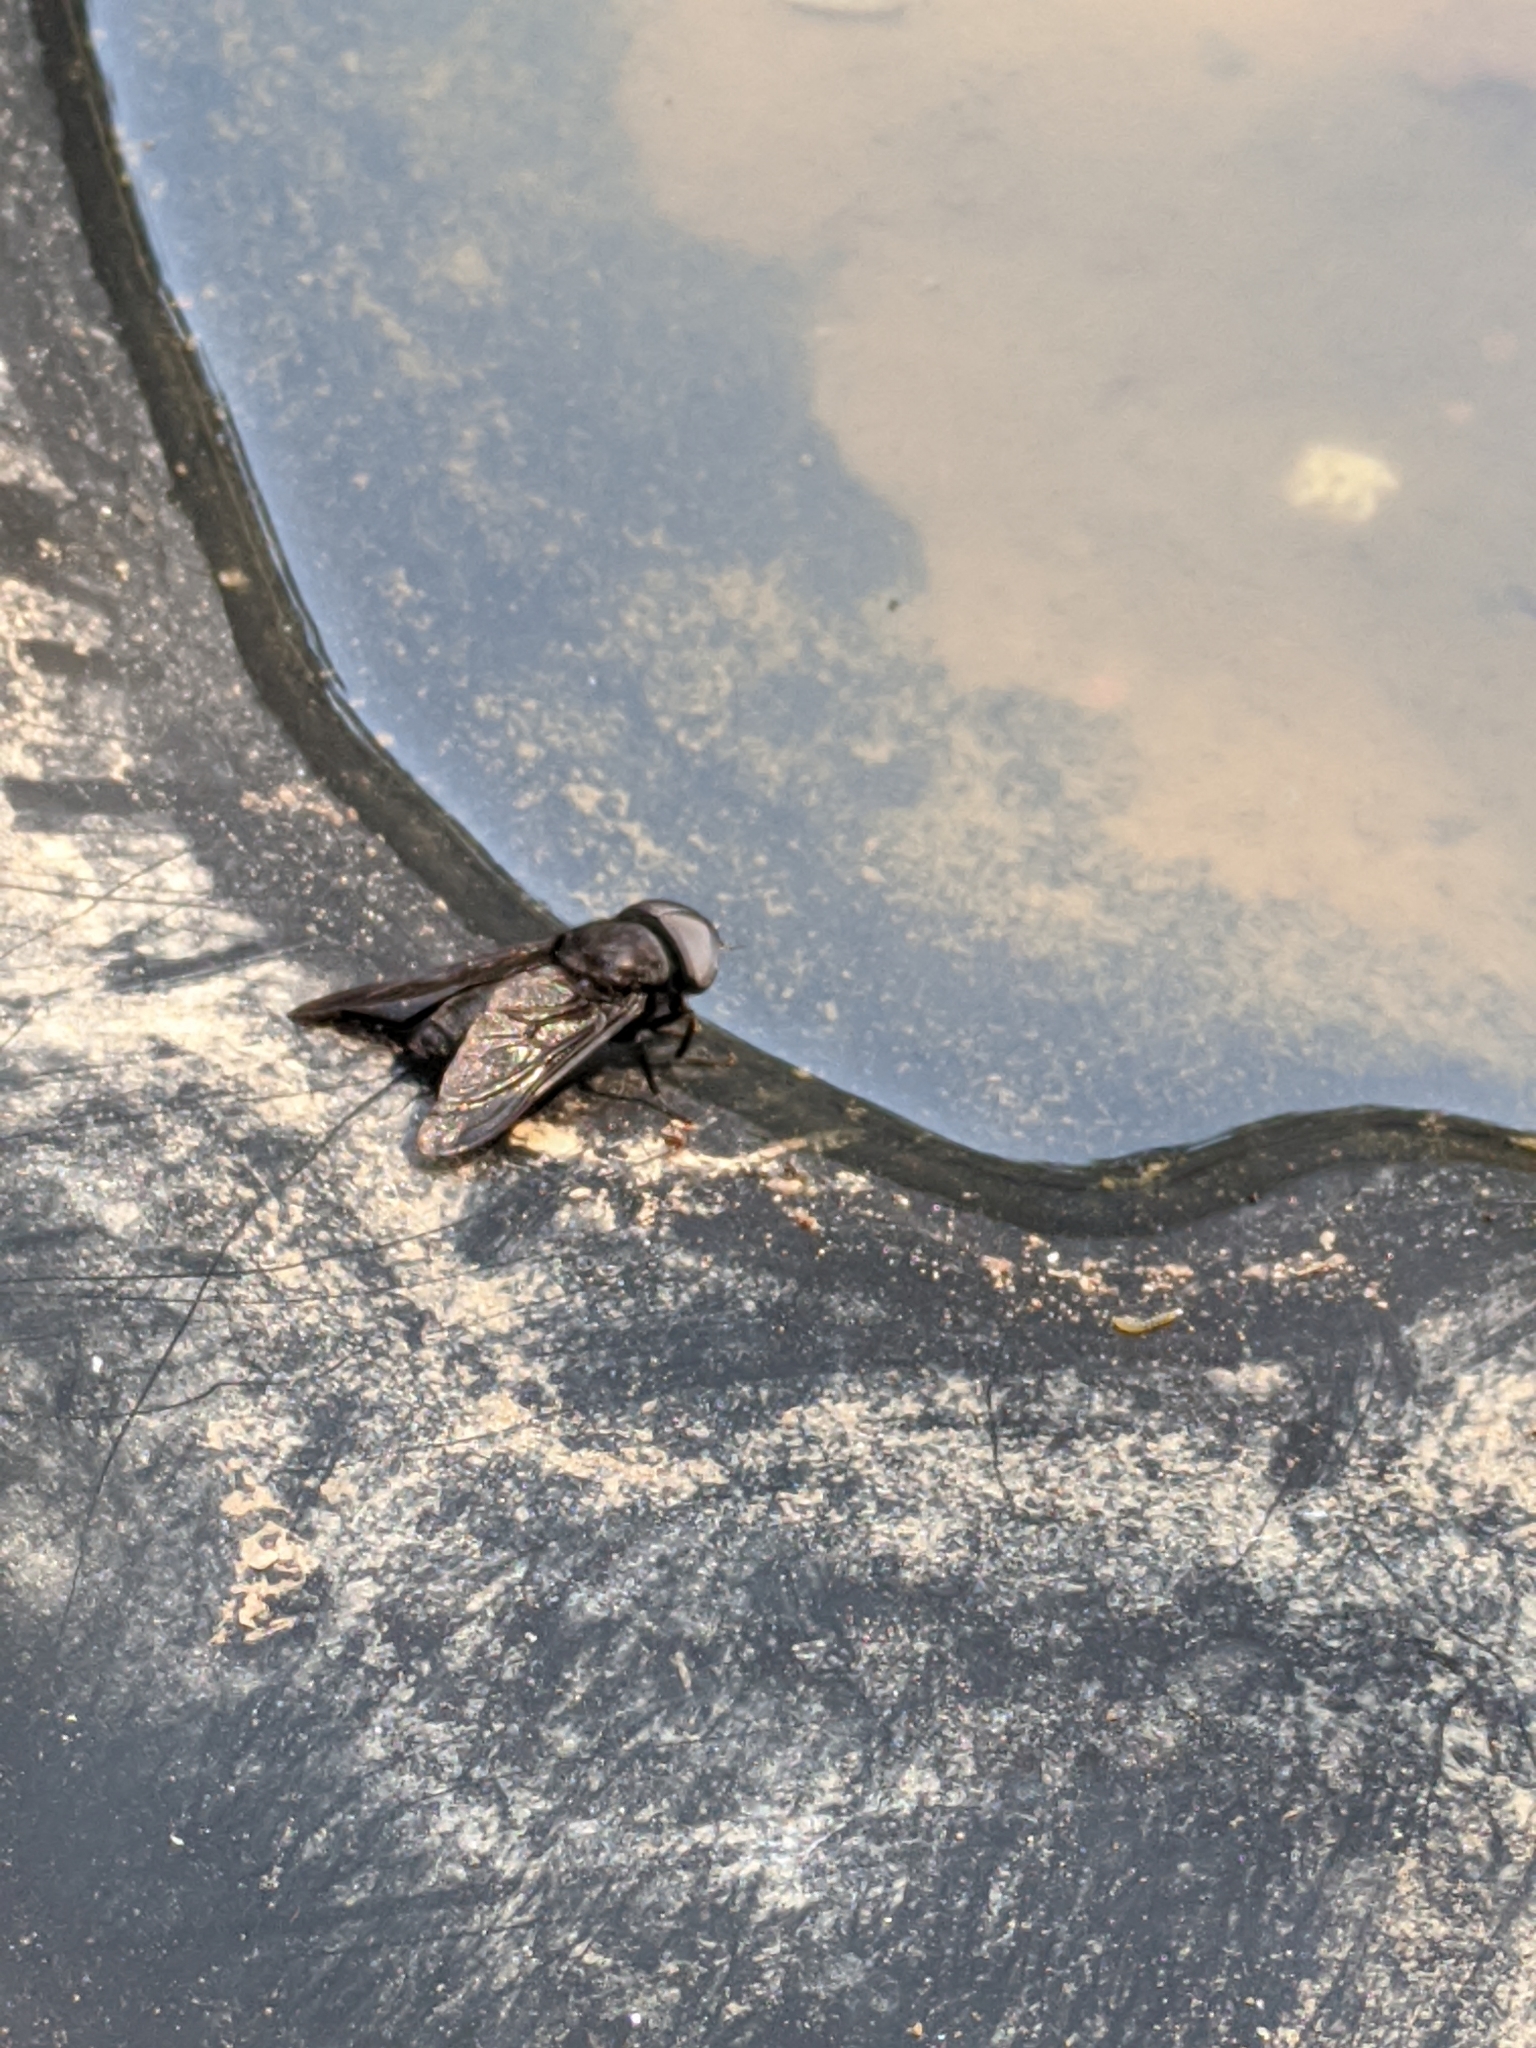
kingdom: Animalia
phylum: Arthropoda
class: Insecta
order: Diptera
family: Tabanidae
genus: Tabanus
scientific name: Tabanus atratus
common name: Black horse fly
